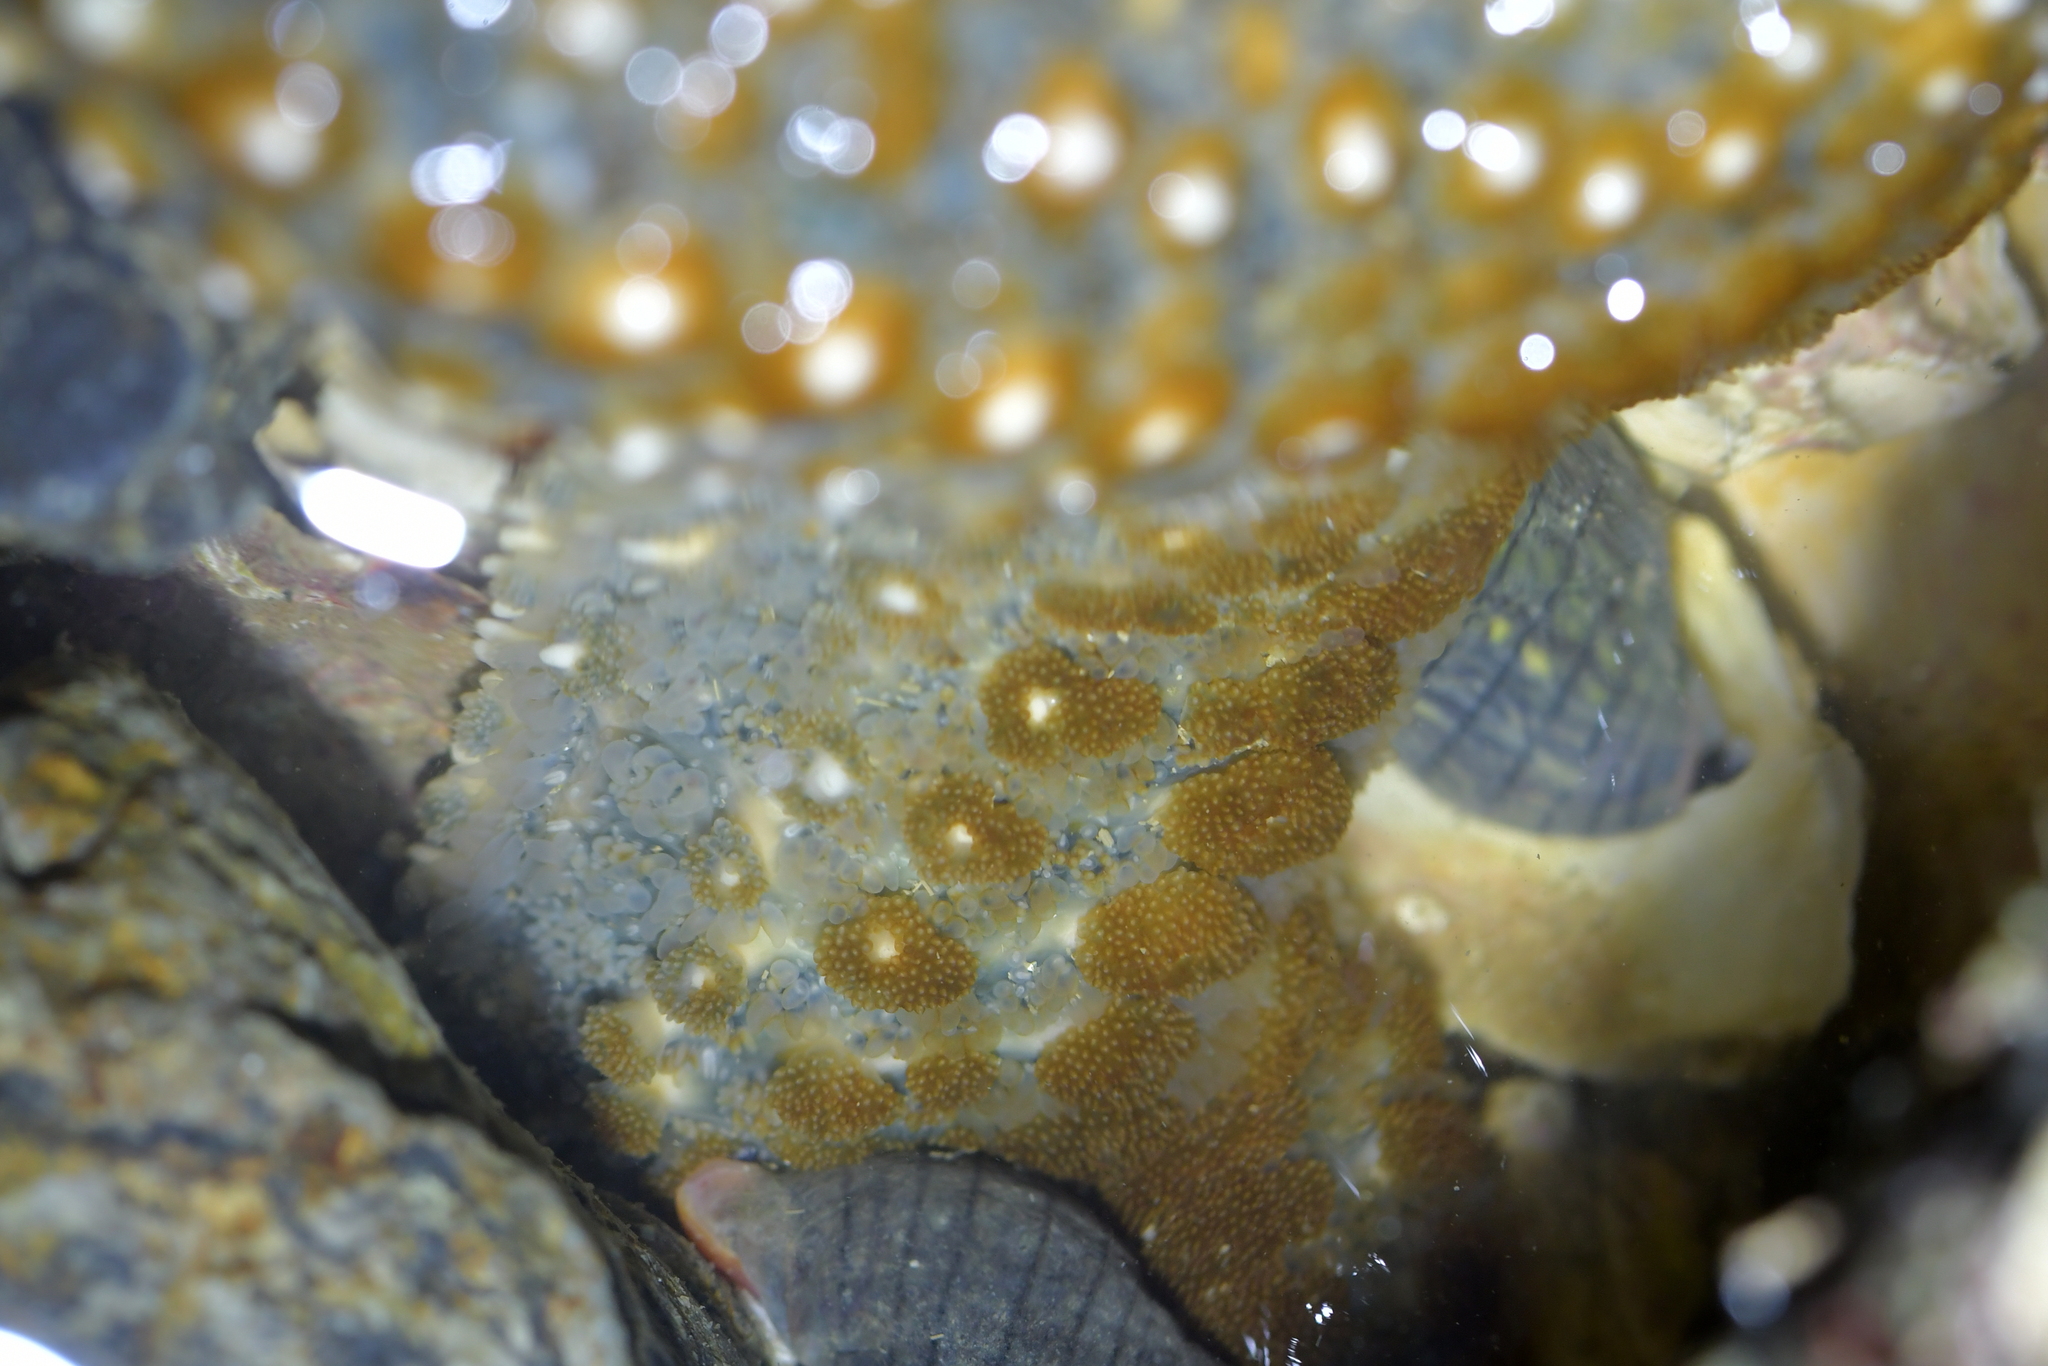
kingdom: Animalia
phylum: Echinodermata
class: Asteroidea
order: Forcipulatida
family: Asteriidae
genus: Astrostole
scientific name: Astrostole scabra
